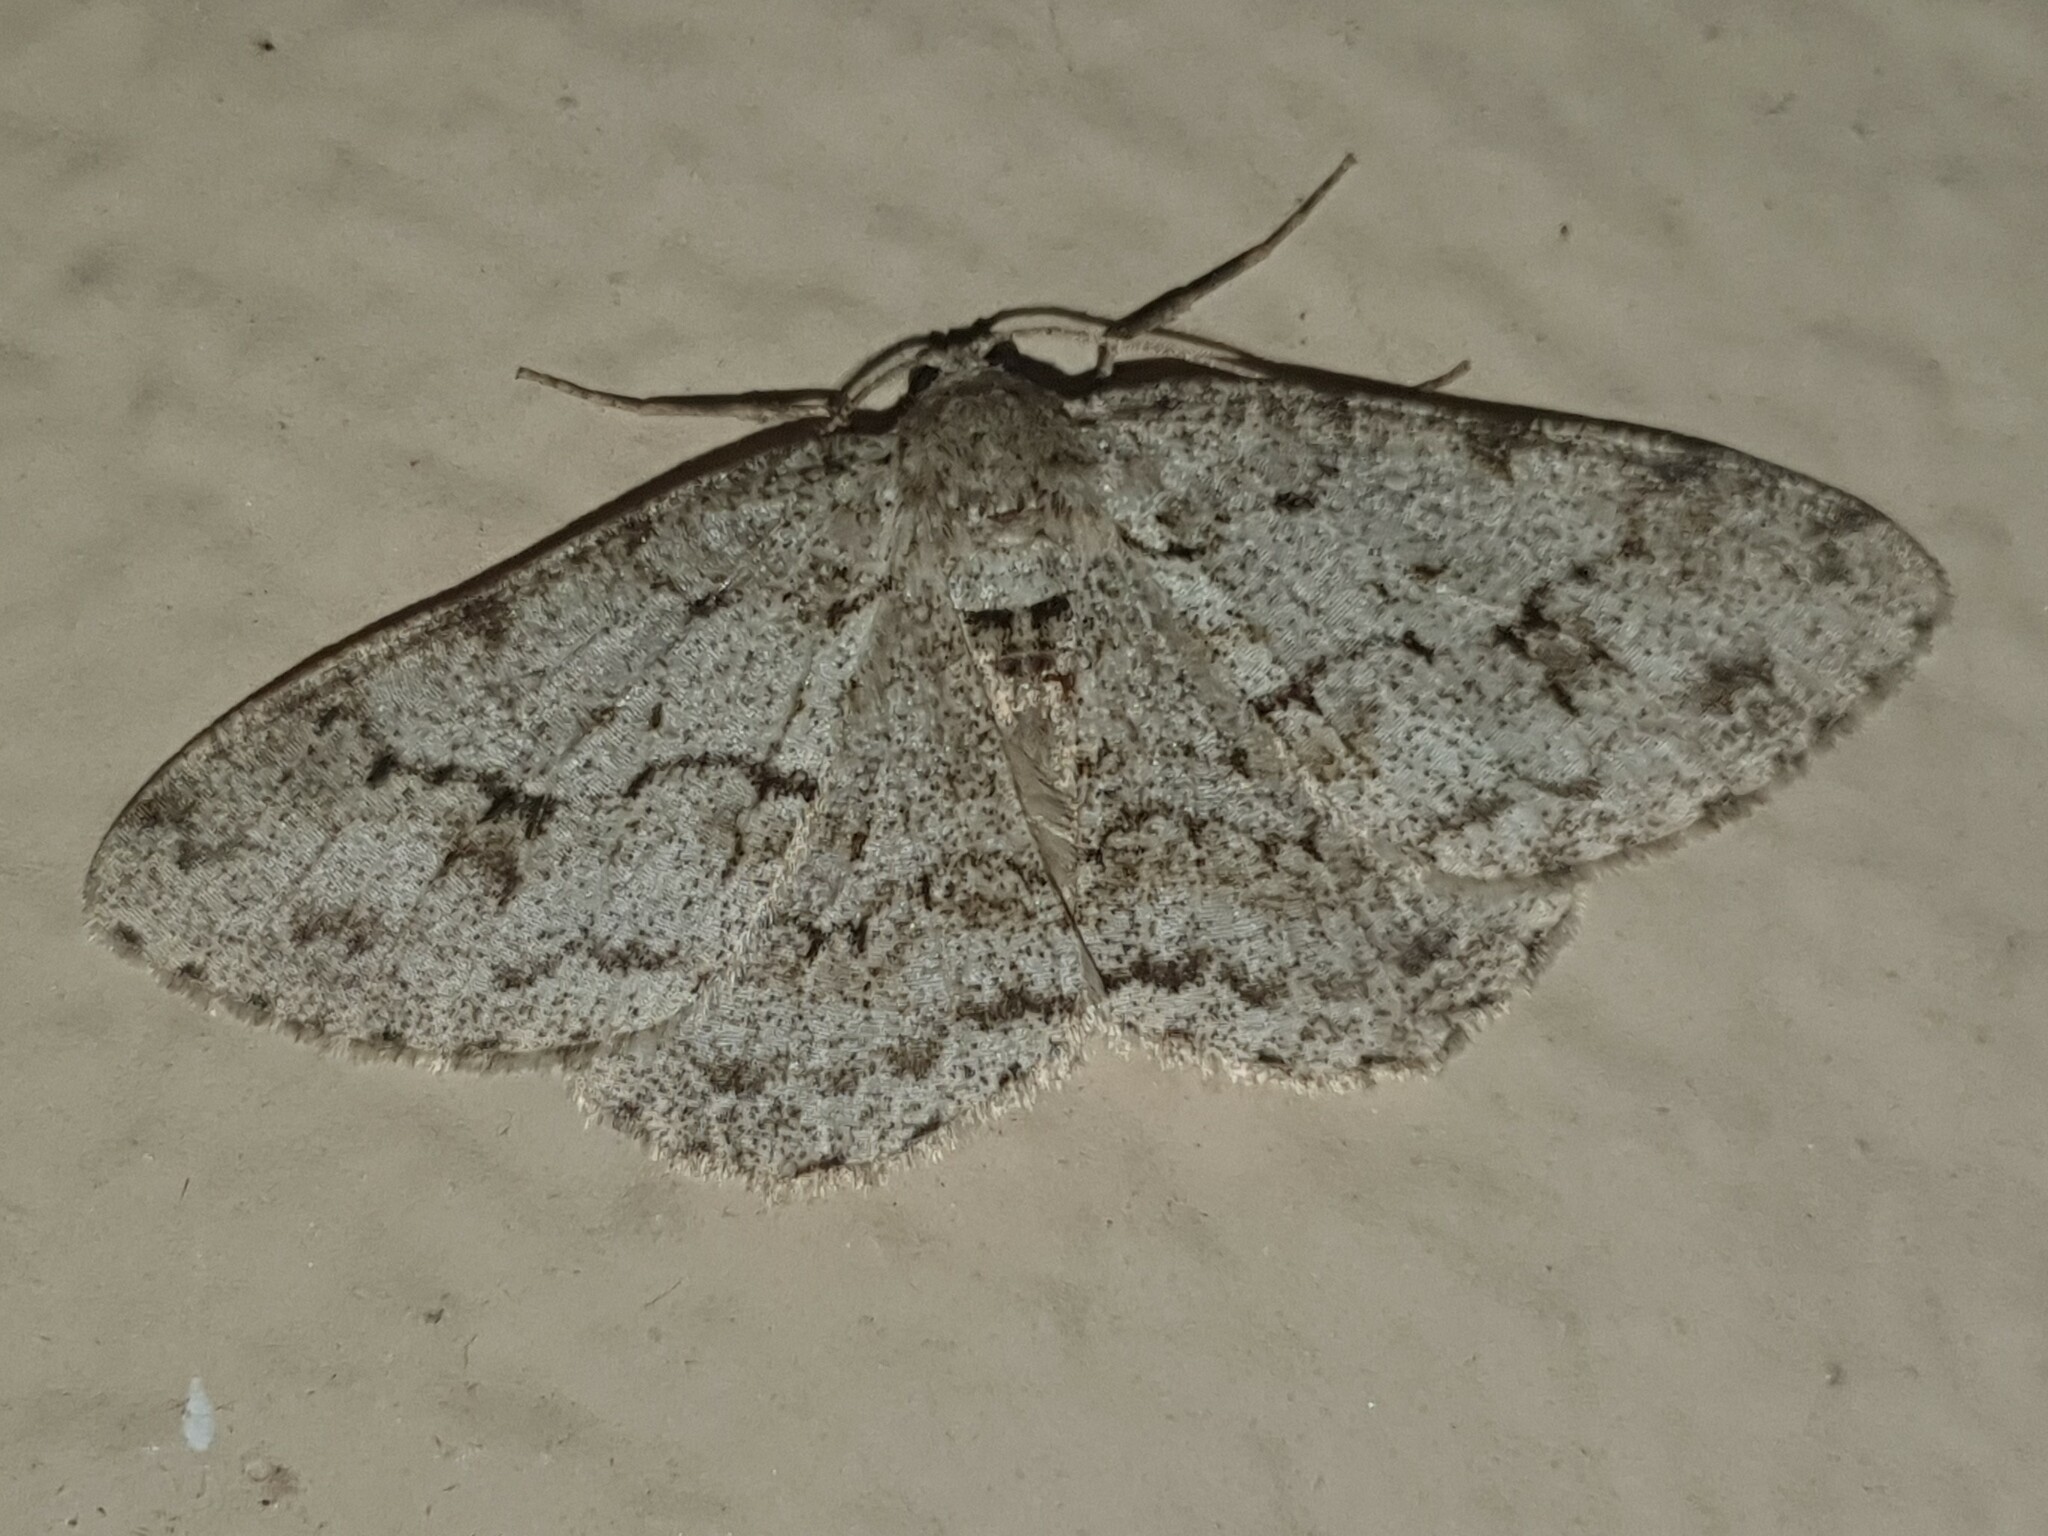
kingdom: Animalia
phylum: Arthropoda
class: Insecta
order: Lepidoptera
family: Geometridae
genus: Ectropis
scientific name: Ectropis crepuscularia
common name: Engrailed
